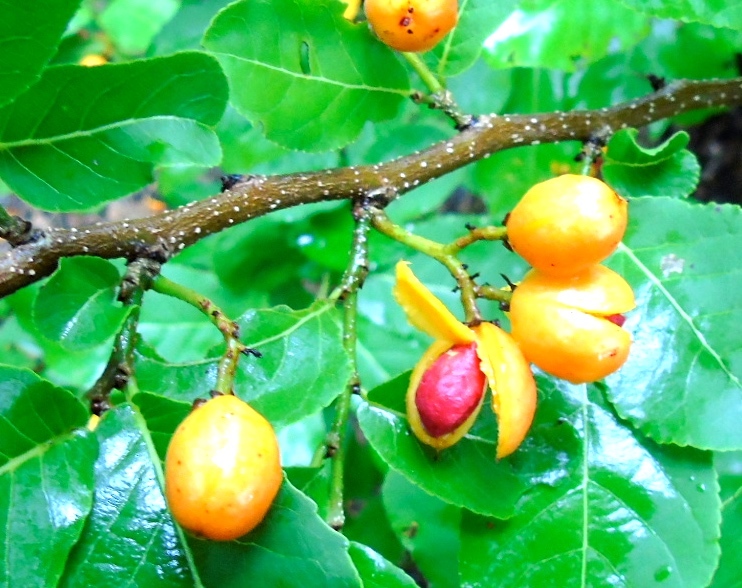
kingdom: Plantae
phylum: Tracheophyta
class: Magnoliopsida
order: Malpighiales
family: Salicaceae
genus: Casearia
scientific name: Casearia corymbosa
